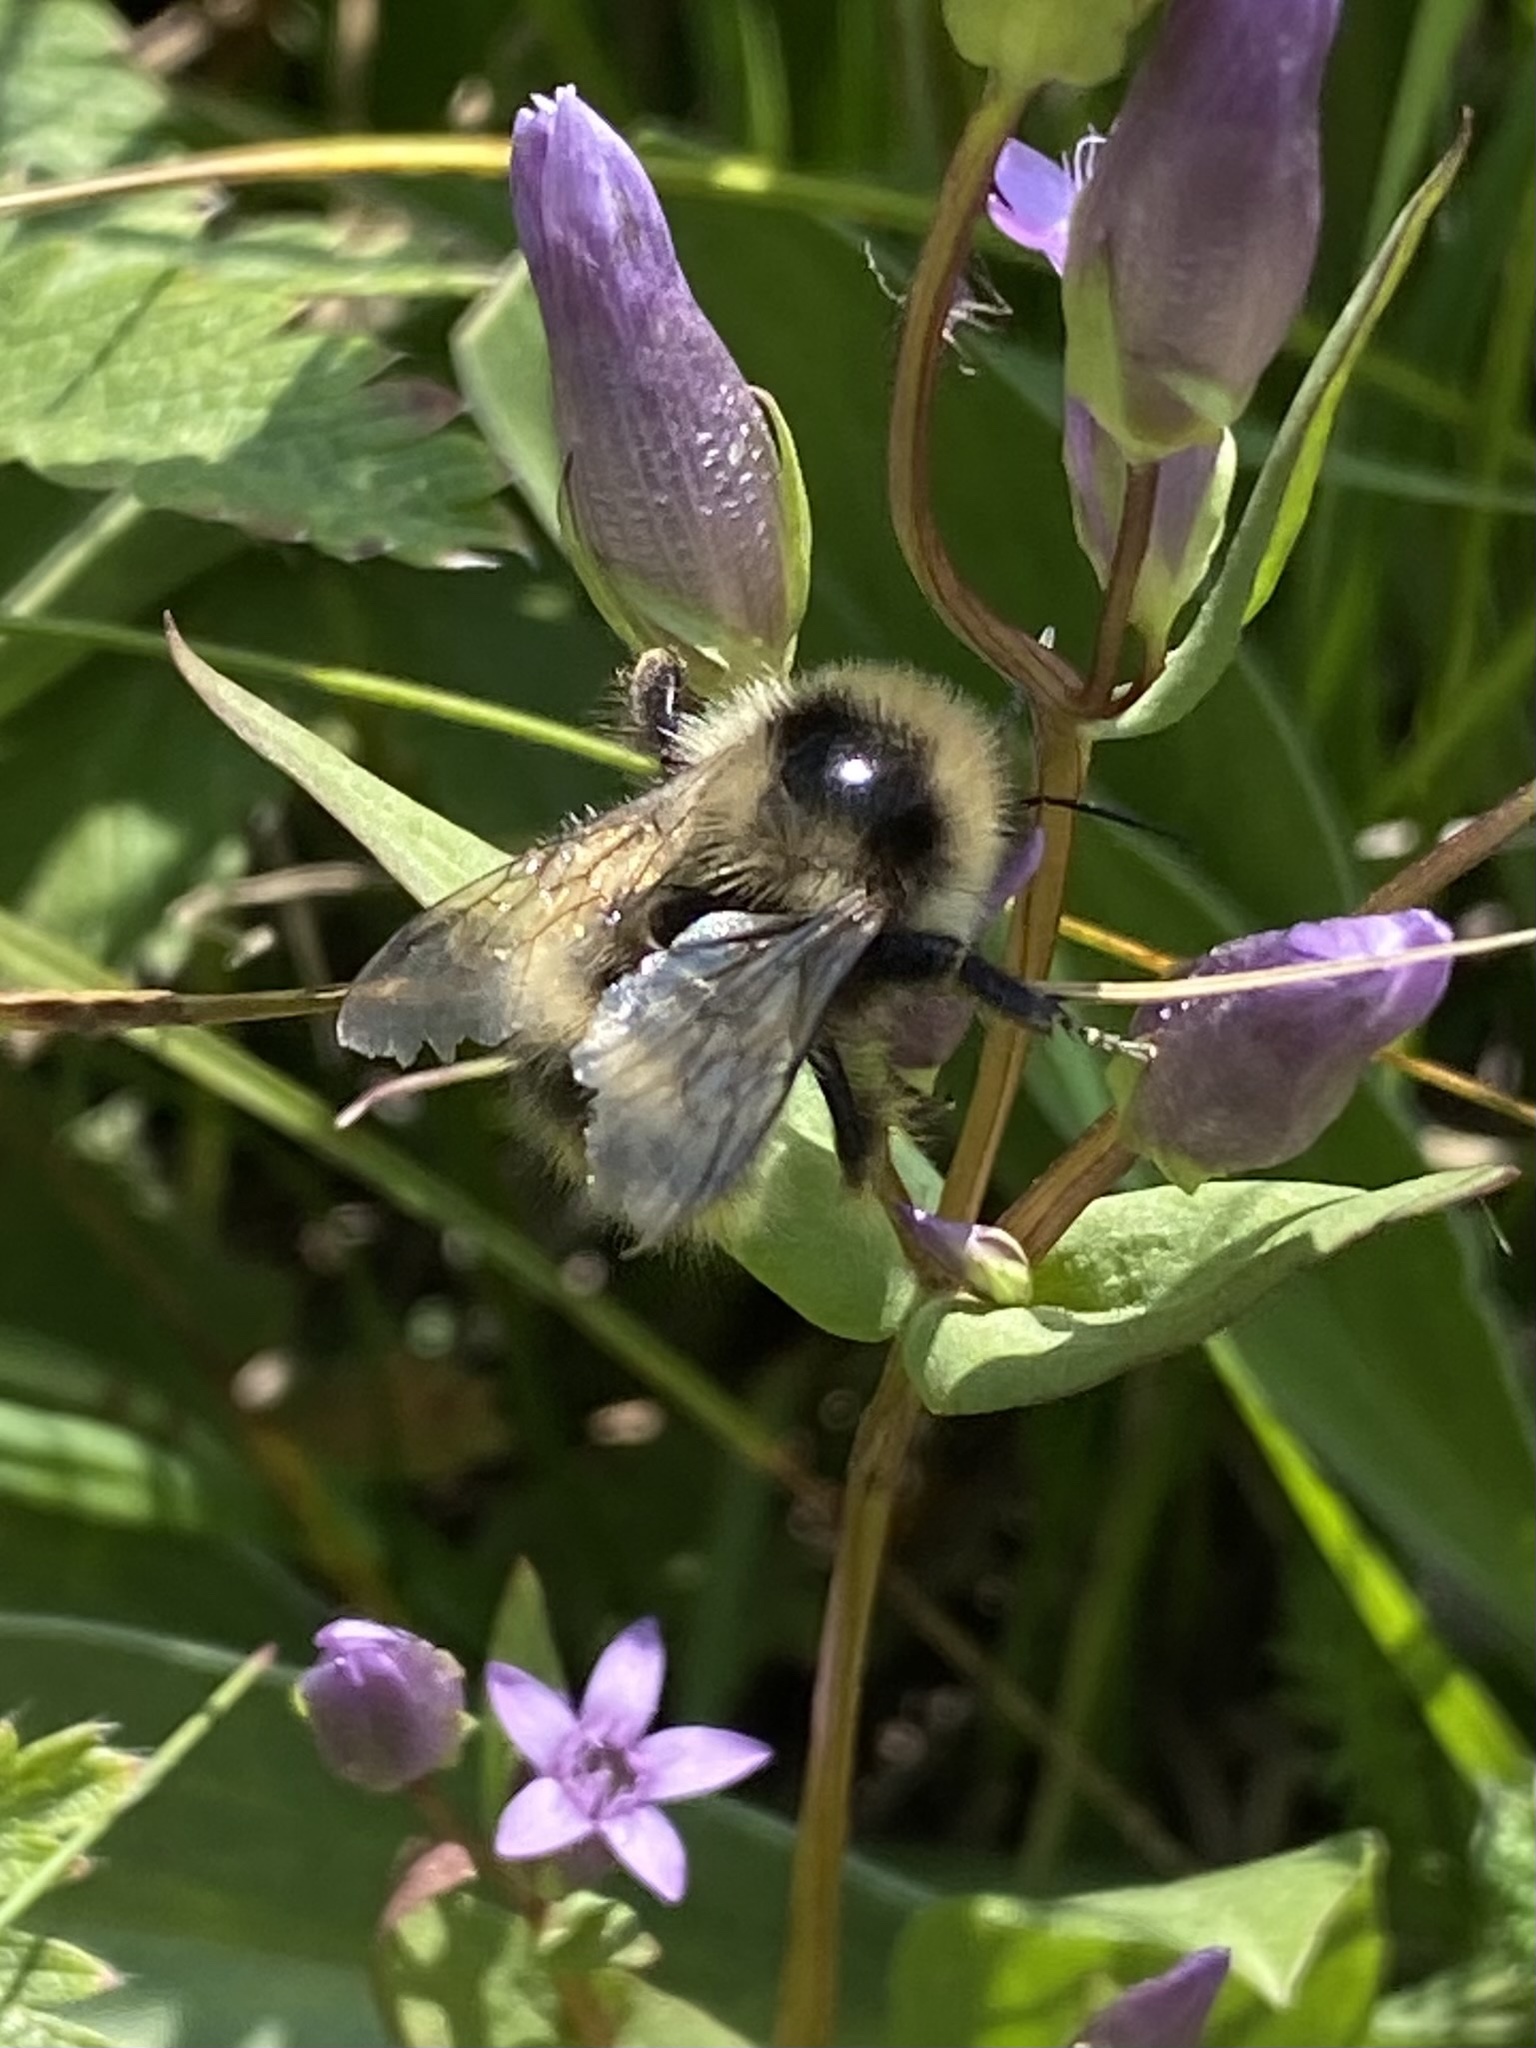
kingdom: Animalia
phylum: Arthropoda
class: Insecta
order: Hymenoptera
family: Apidae
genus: Bombus
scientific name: Bombus kirbiellus
